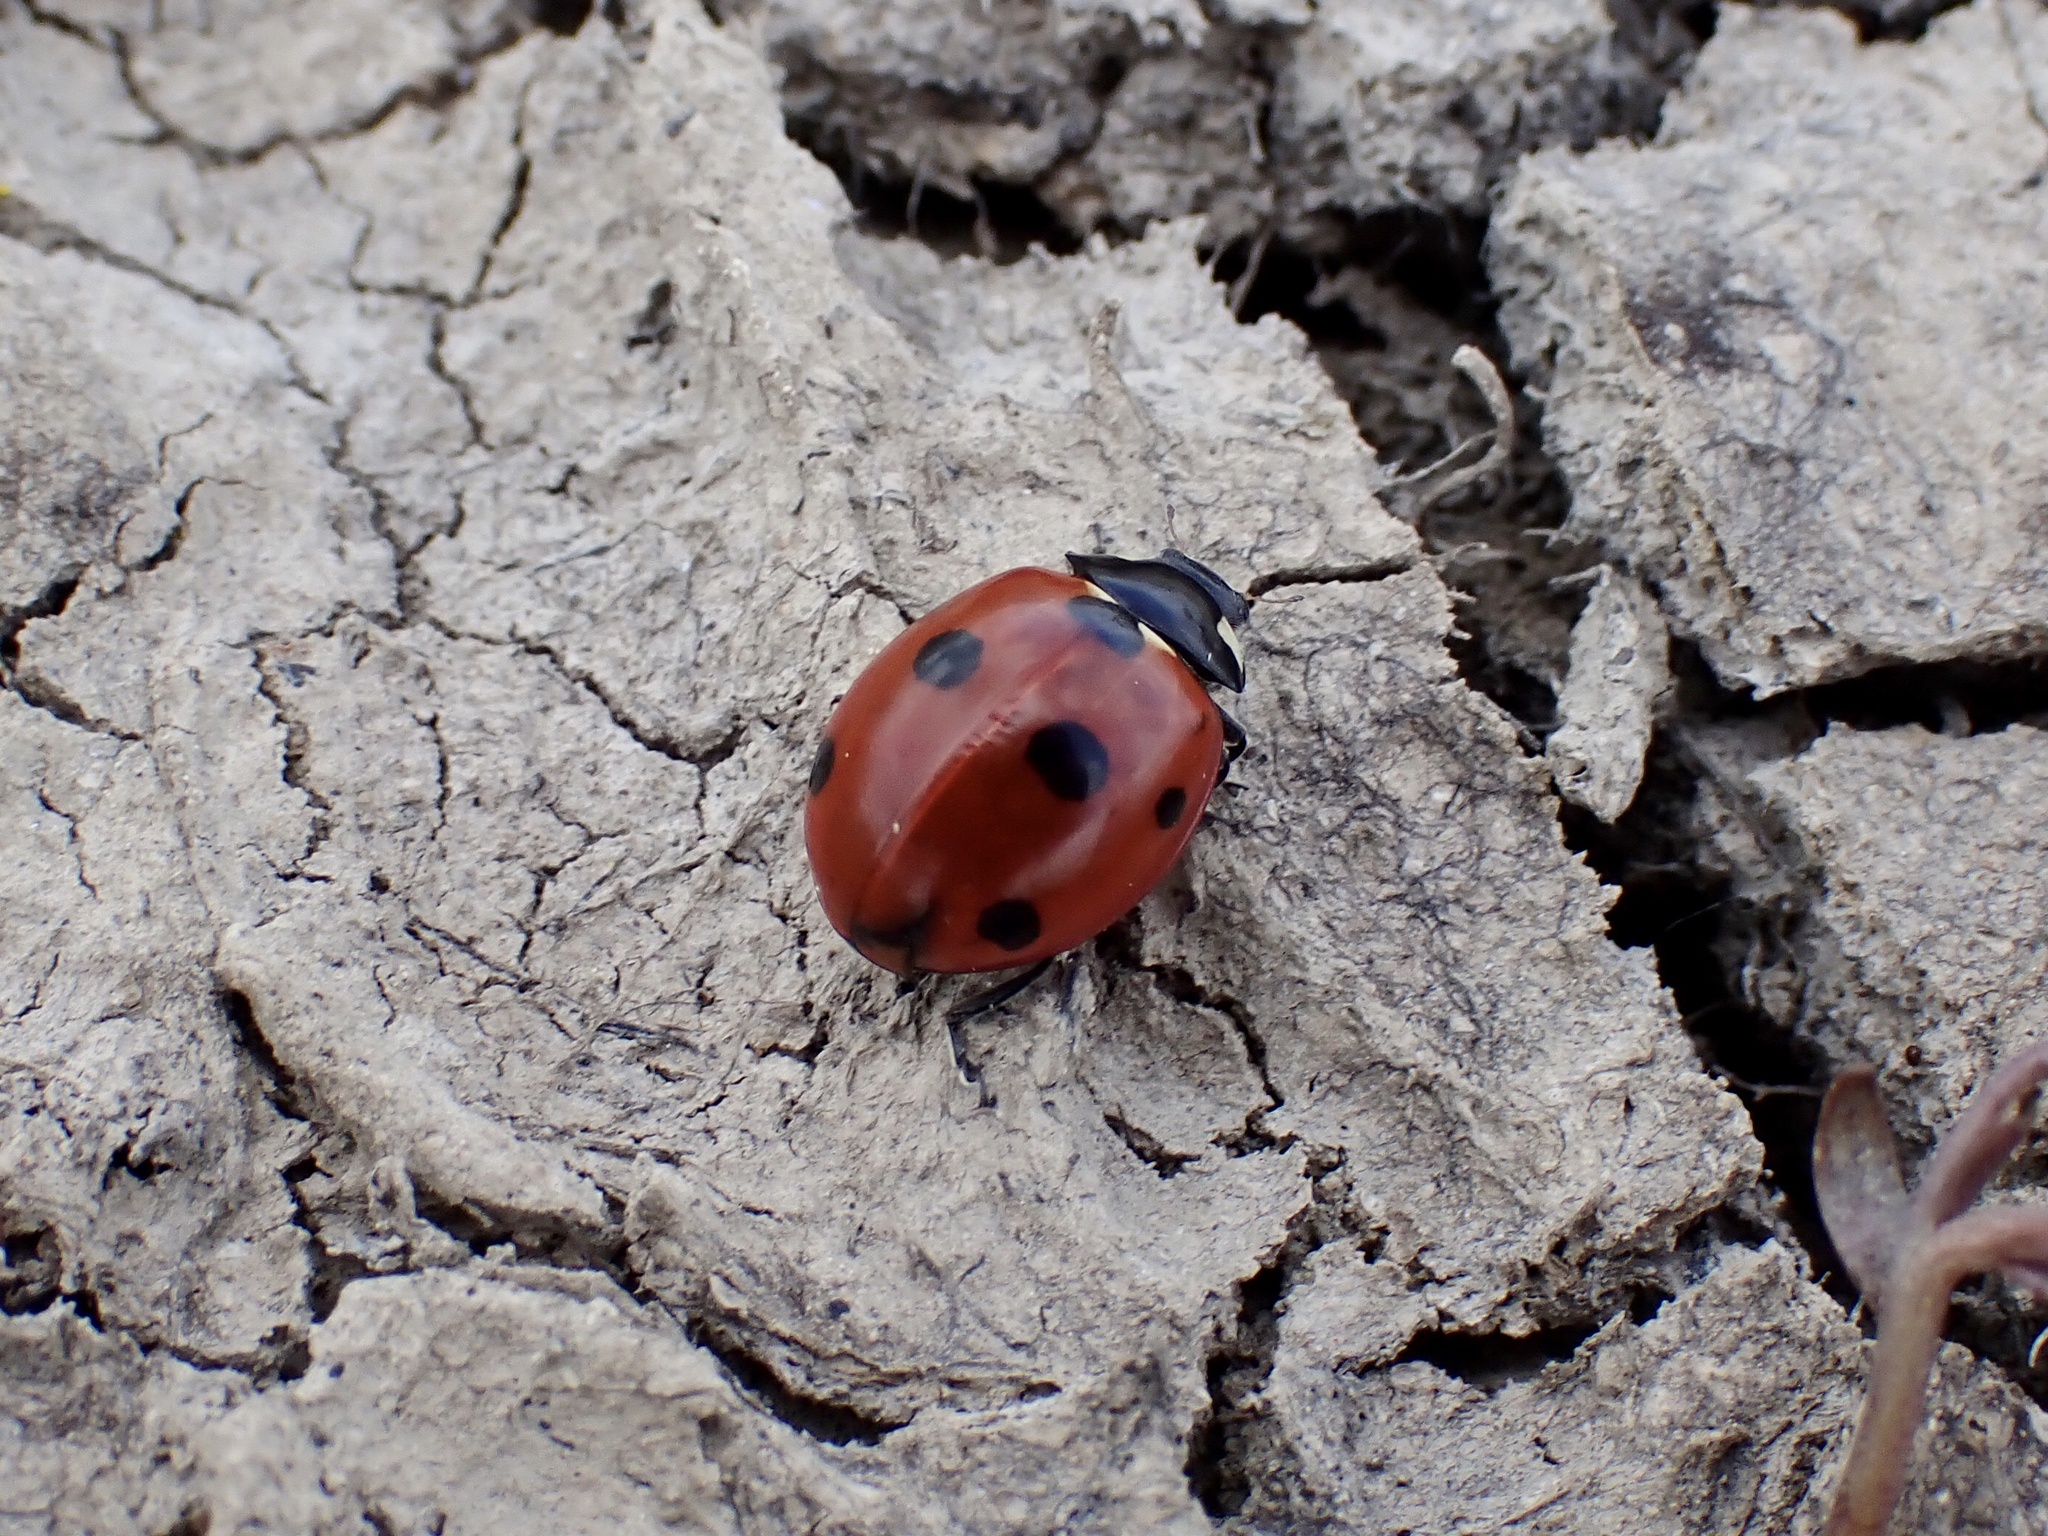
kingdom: Animalia
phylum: Arthropoda
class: Insecta
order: Coleoptera
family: Coccinellidae
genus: Coccinella
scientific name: Coccinella septempunctata
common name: Sevenspotted lady beetle
